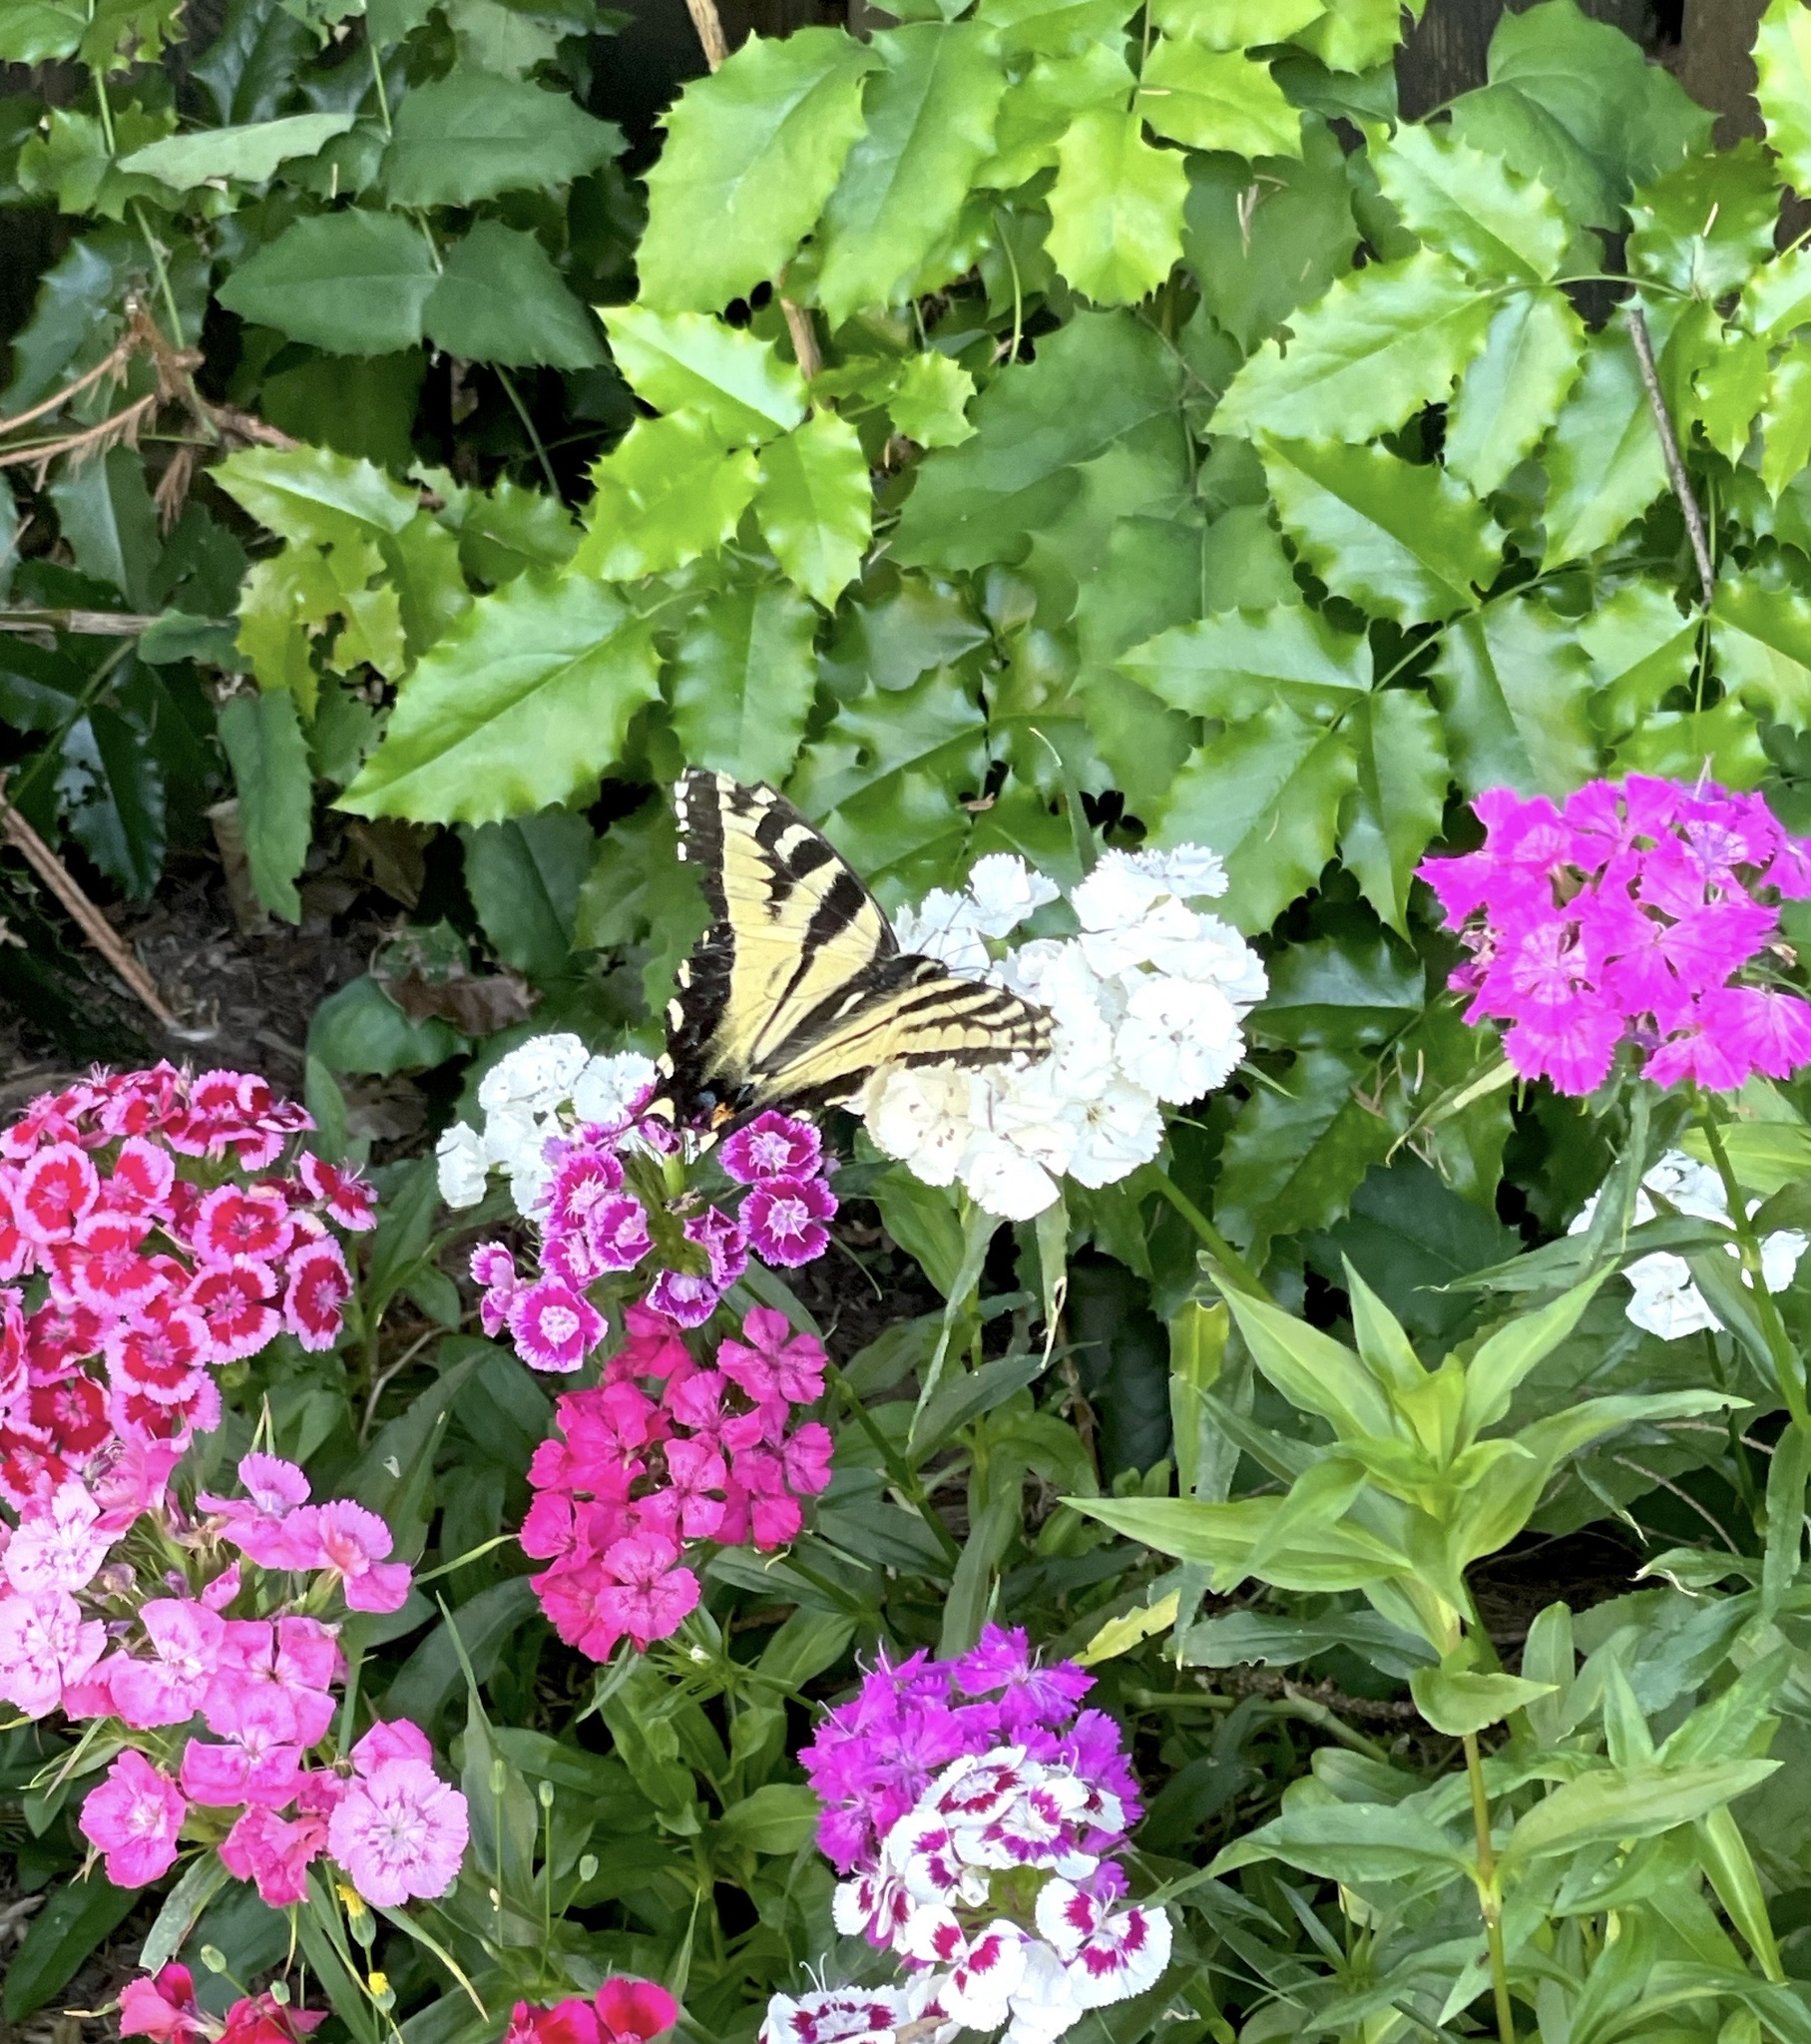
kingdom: Animalia
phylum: Arthropoda
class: Insecta
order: Lepidoptera
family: Papilionidae
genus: Papilio
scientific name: Papilio rutulus
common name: Western tiger swallowtail
